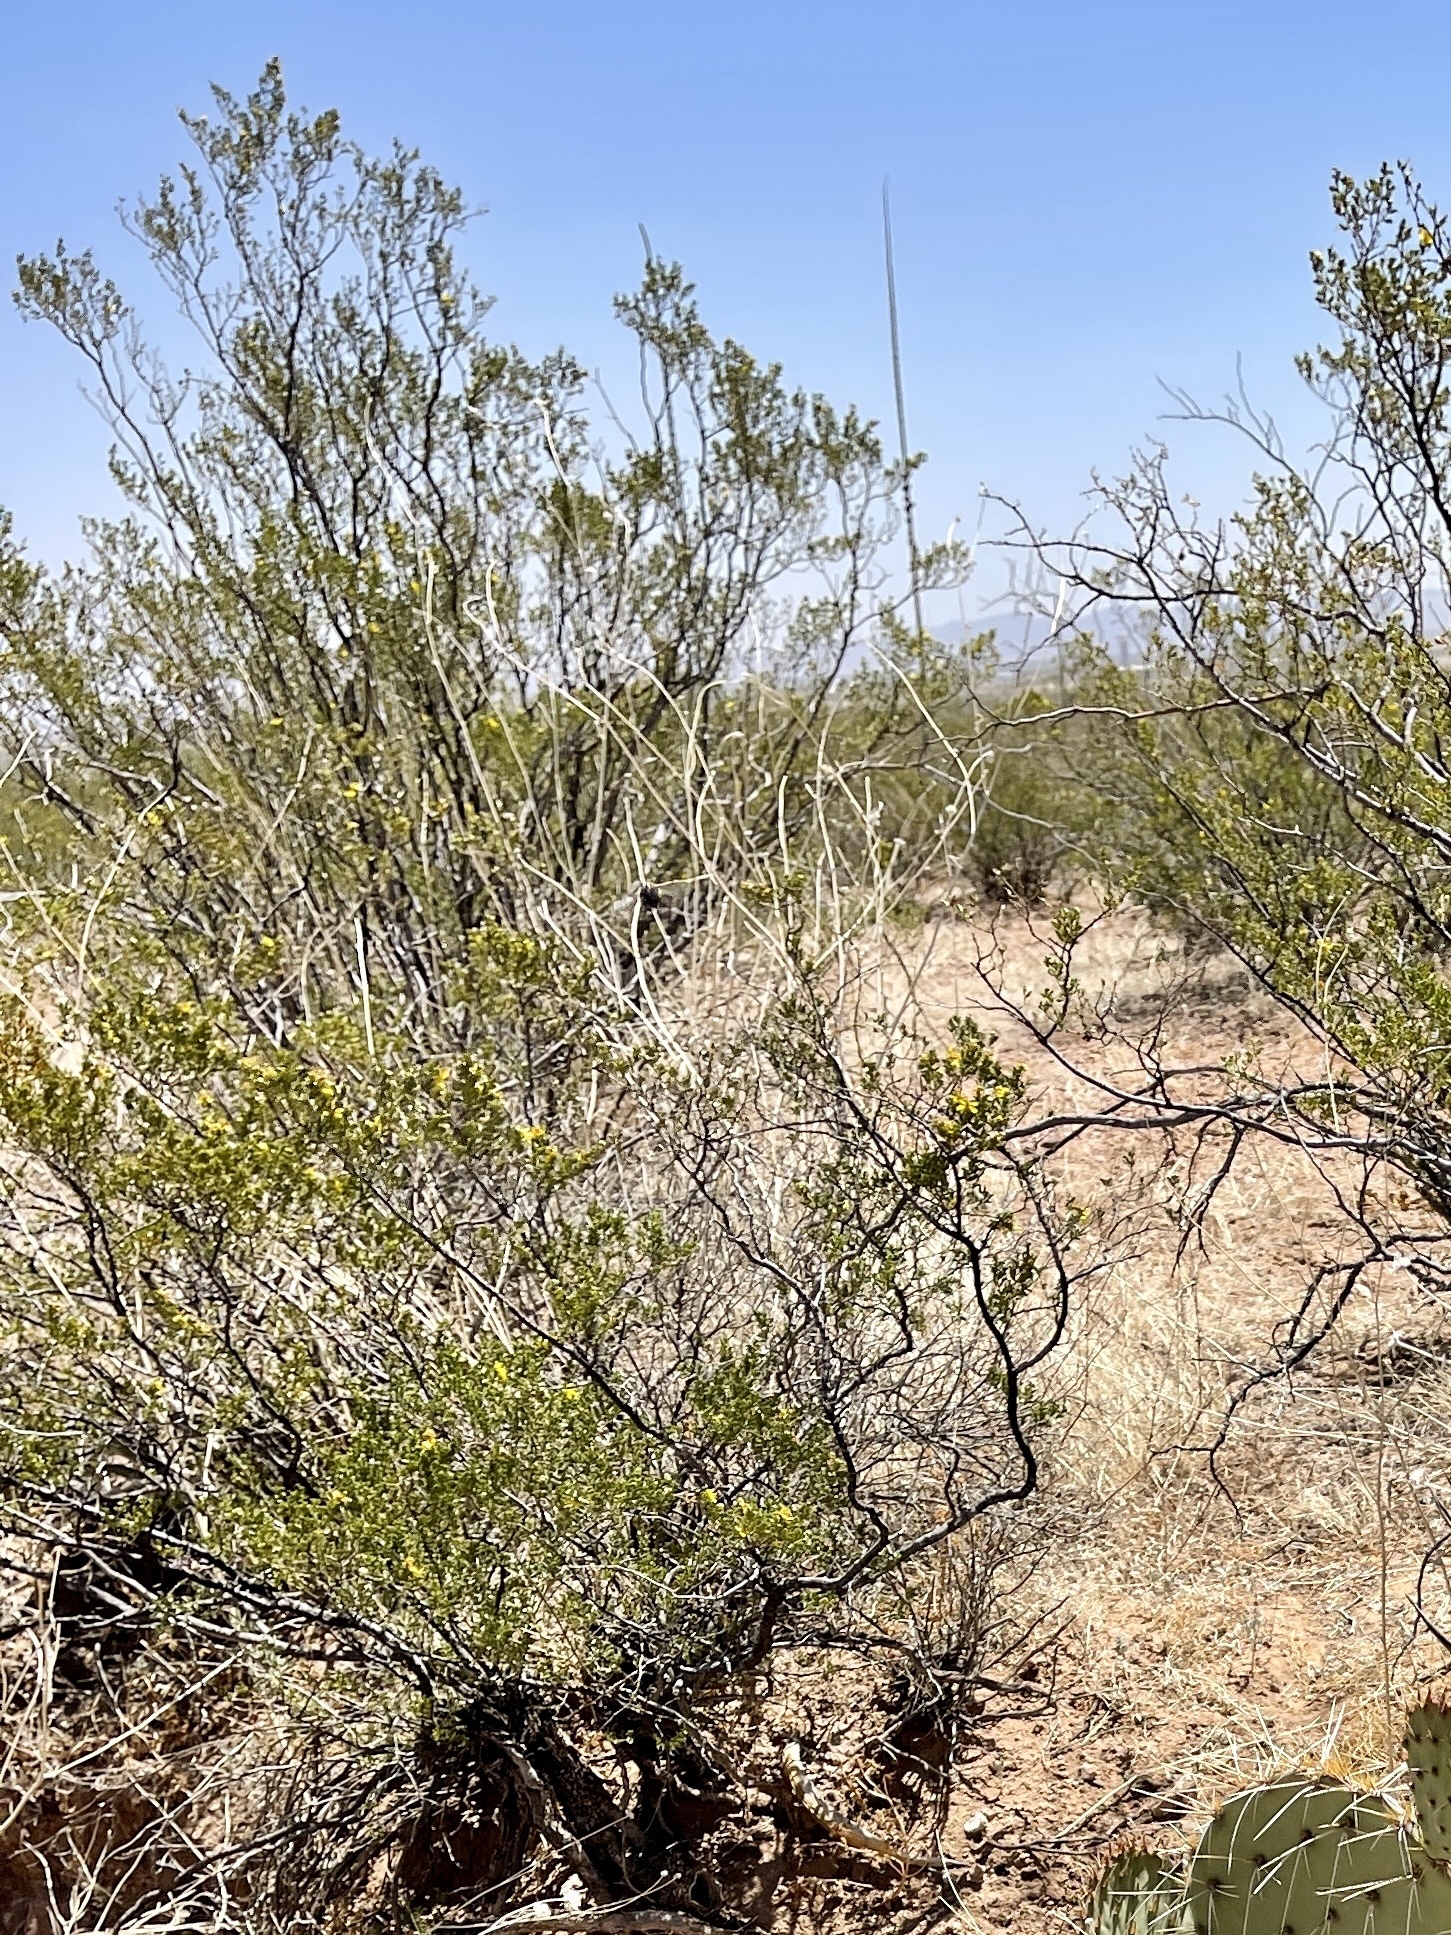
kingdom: Plantae
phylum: Tracheophyta
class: Magnoliopsida
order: Zygophyllales
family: Zygophyllaceae
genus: Larrea
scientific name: Larrea tridentata
